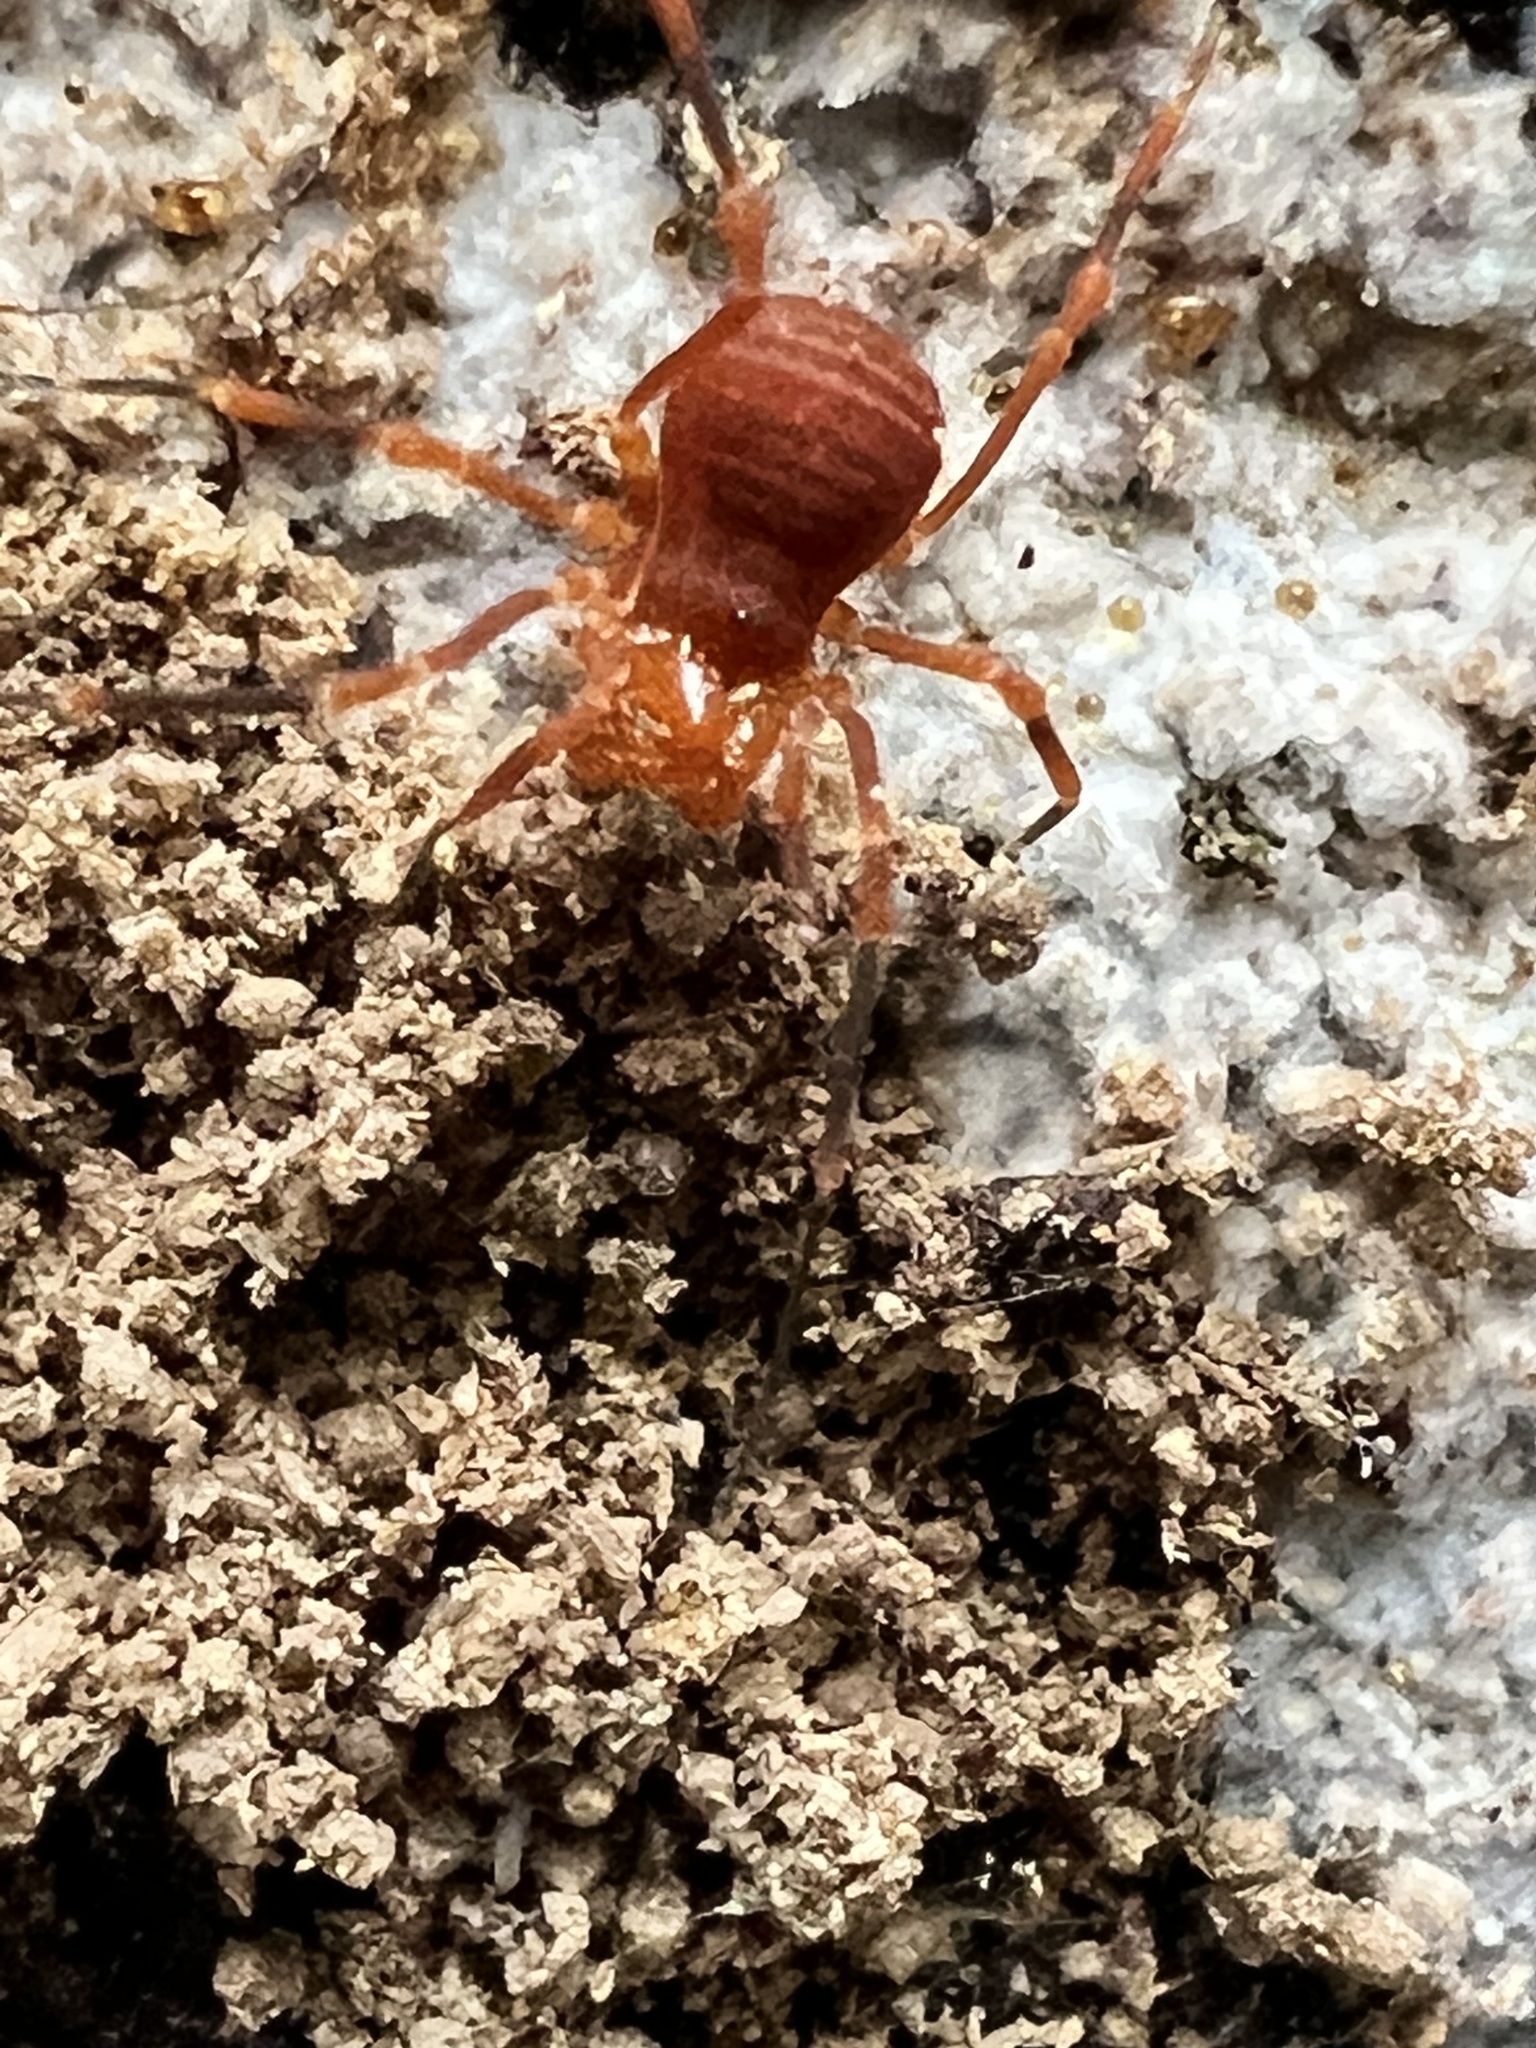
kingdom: Animalia
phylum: Arthropoda
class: Arachnida
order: Opiliones
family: Paranonychidae
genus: Sclerobunus
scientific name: Sclerobunus nondimorphicus
